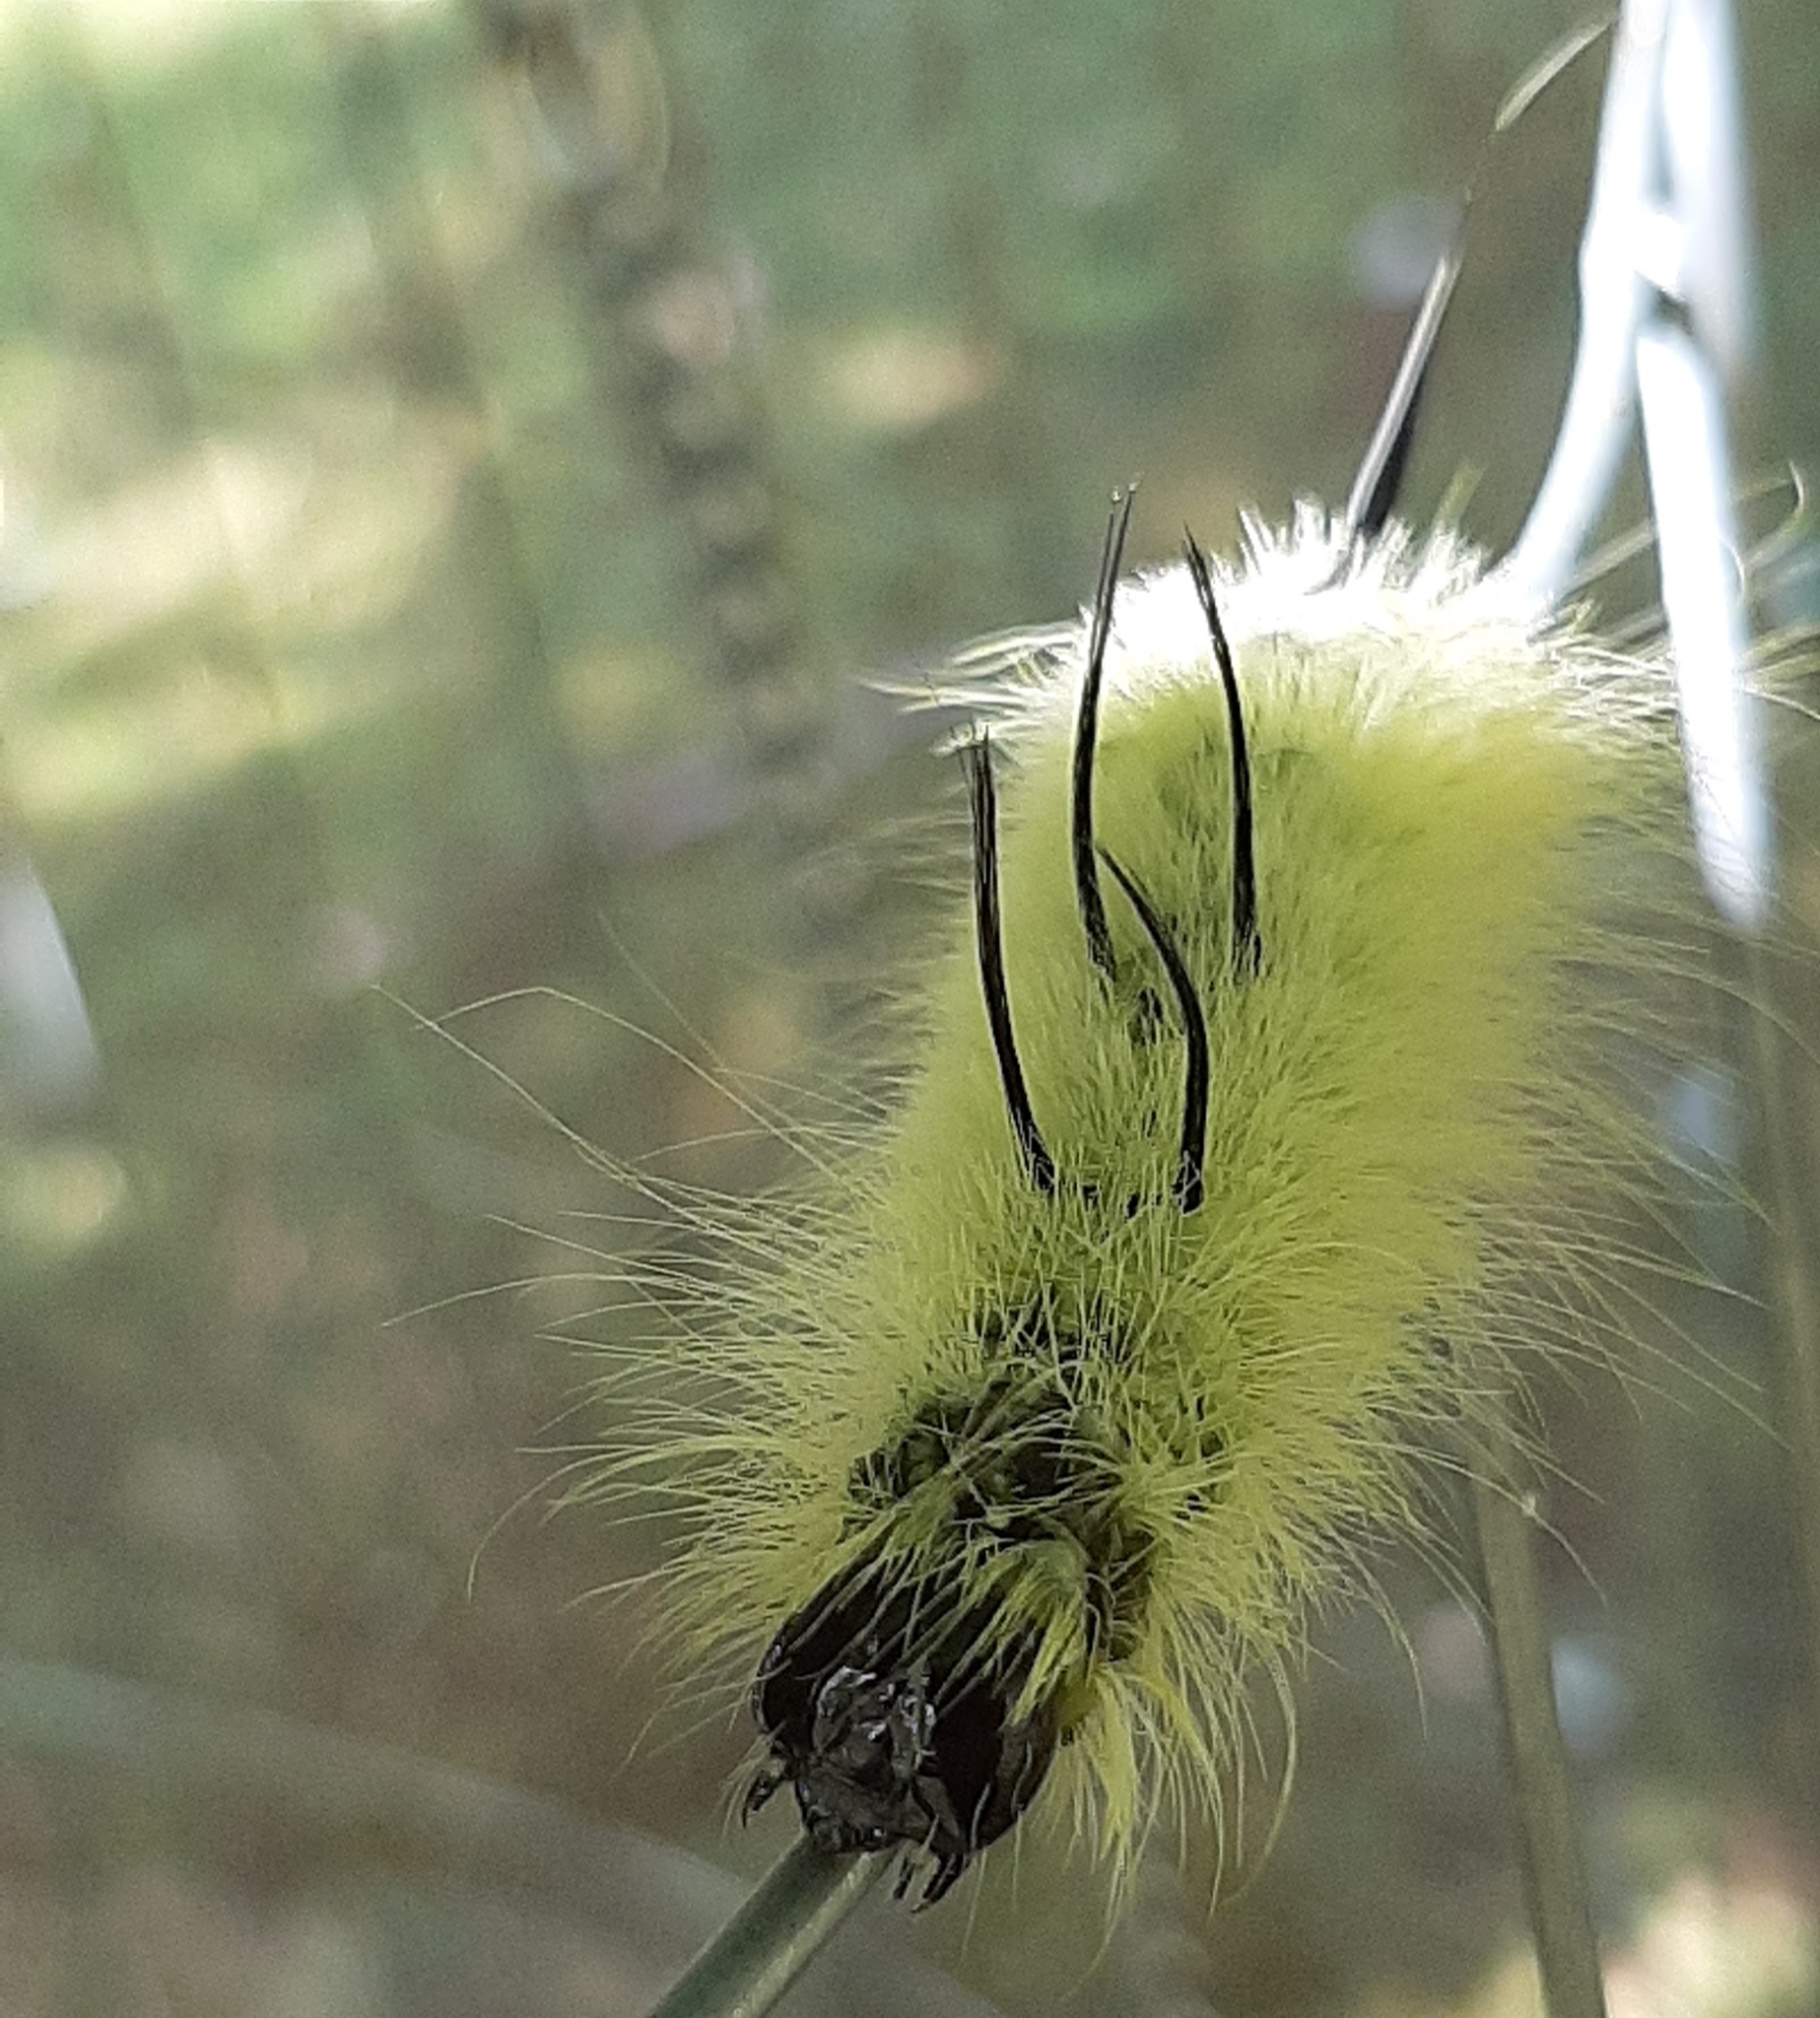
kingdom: Animalia
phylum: Arthropoda
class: Insecta
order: Lepidoptera
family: Noctuidae
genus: Acronicta
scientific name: Acronicta americana
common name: American dagger
